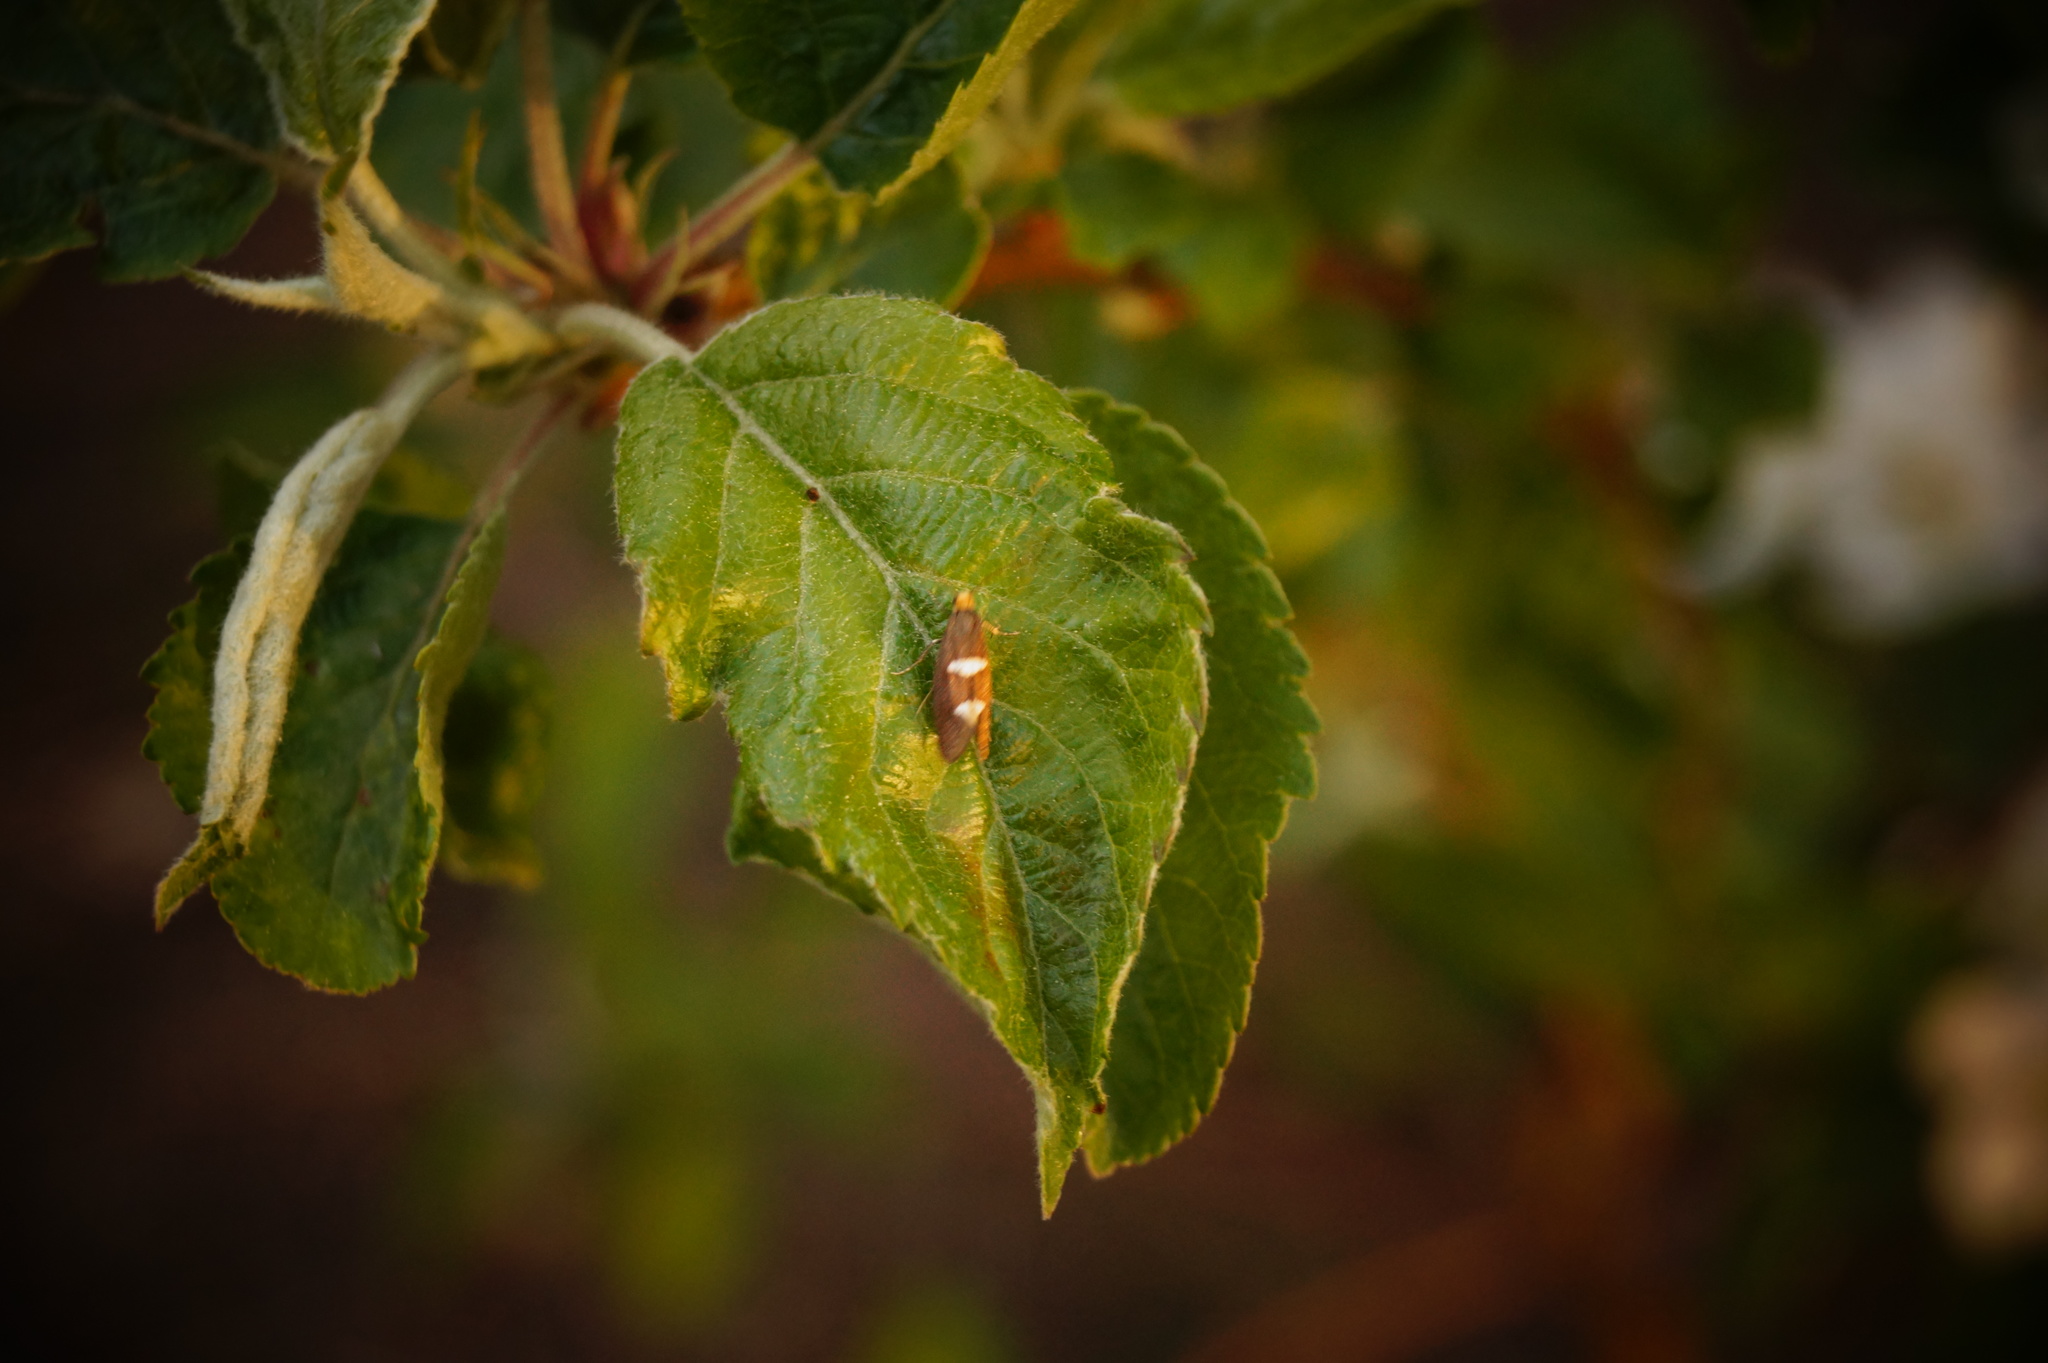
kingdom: Animalia
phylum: Arthropoda
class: Insecta
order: Lepidoptera
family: Incurvariidae
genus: Incurvaria
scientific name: Incurvaria masculella
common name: Feathered leaf-cutter
